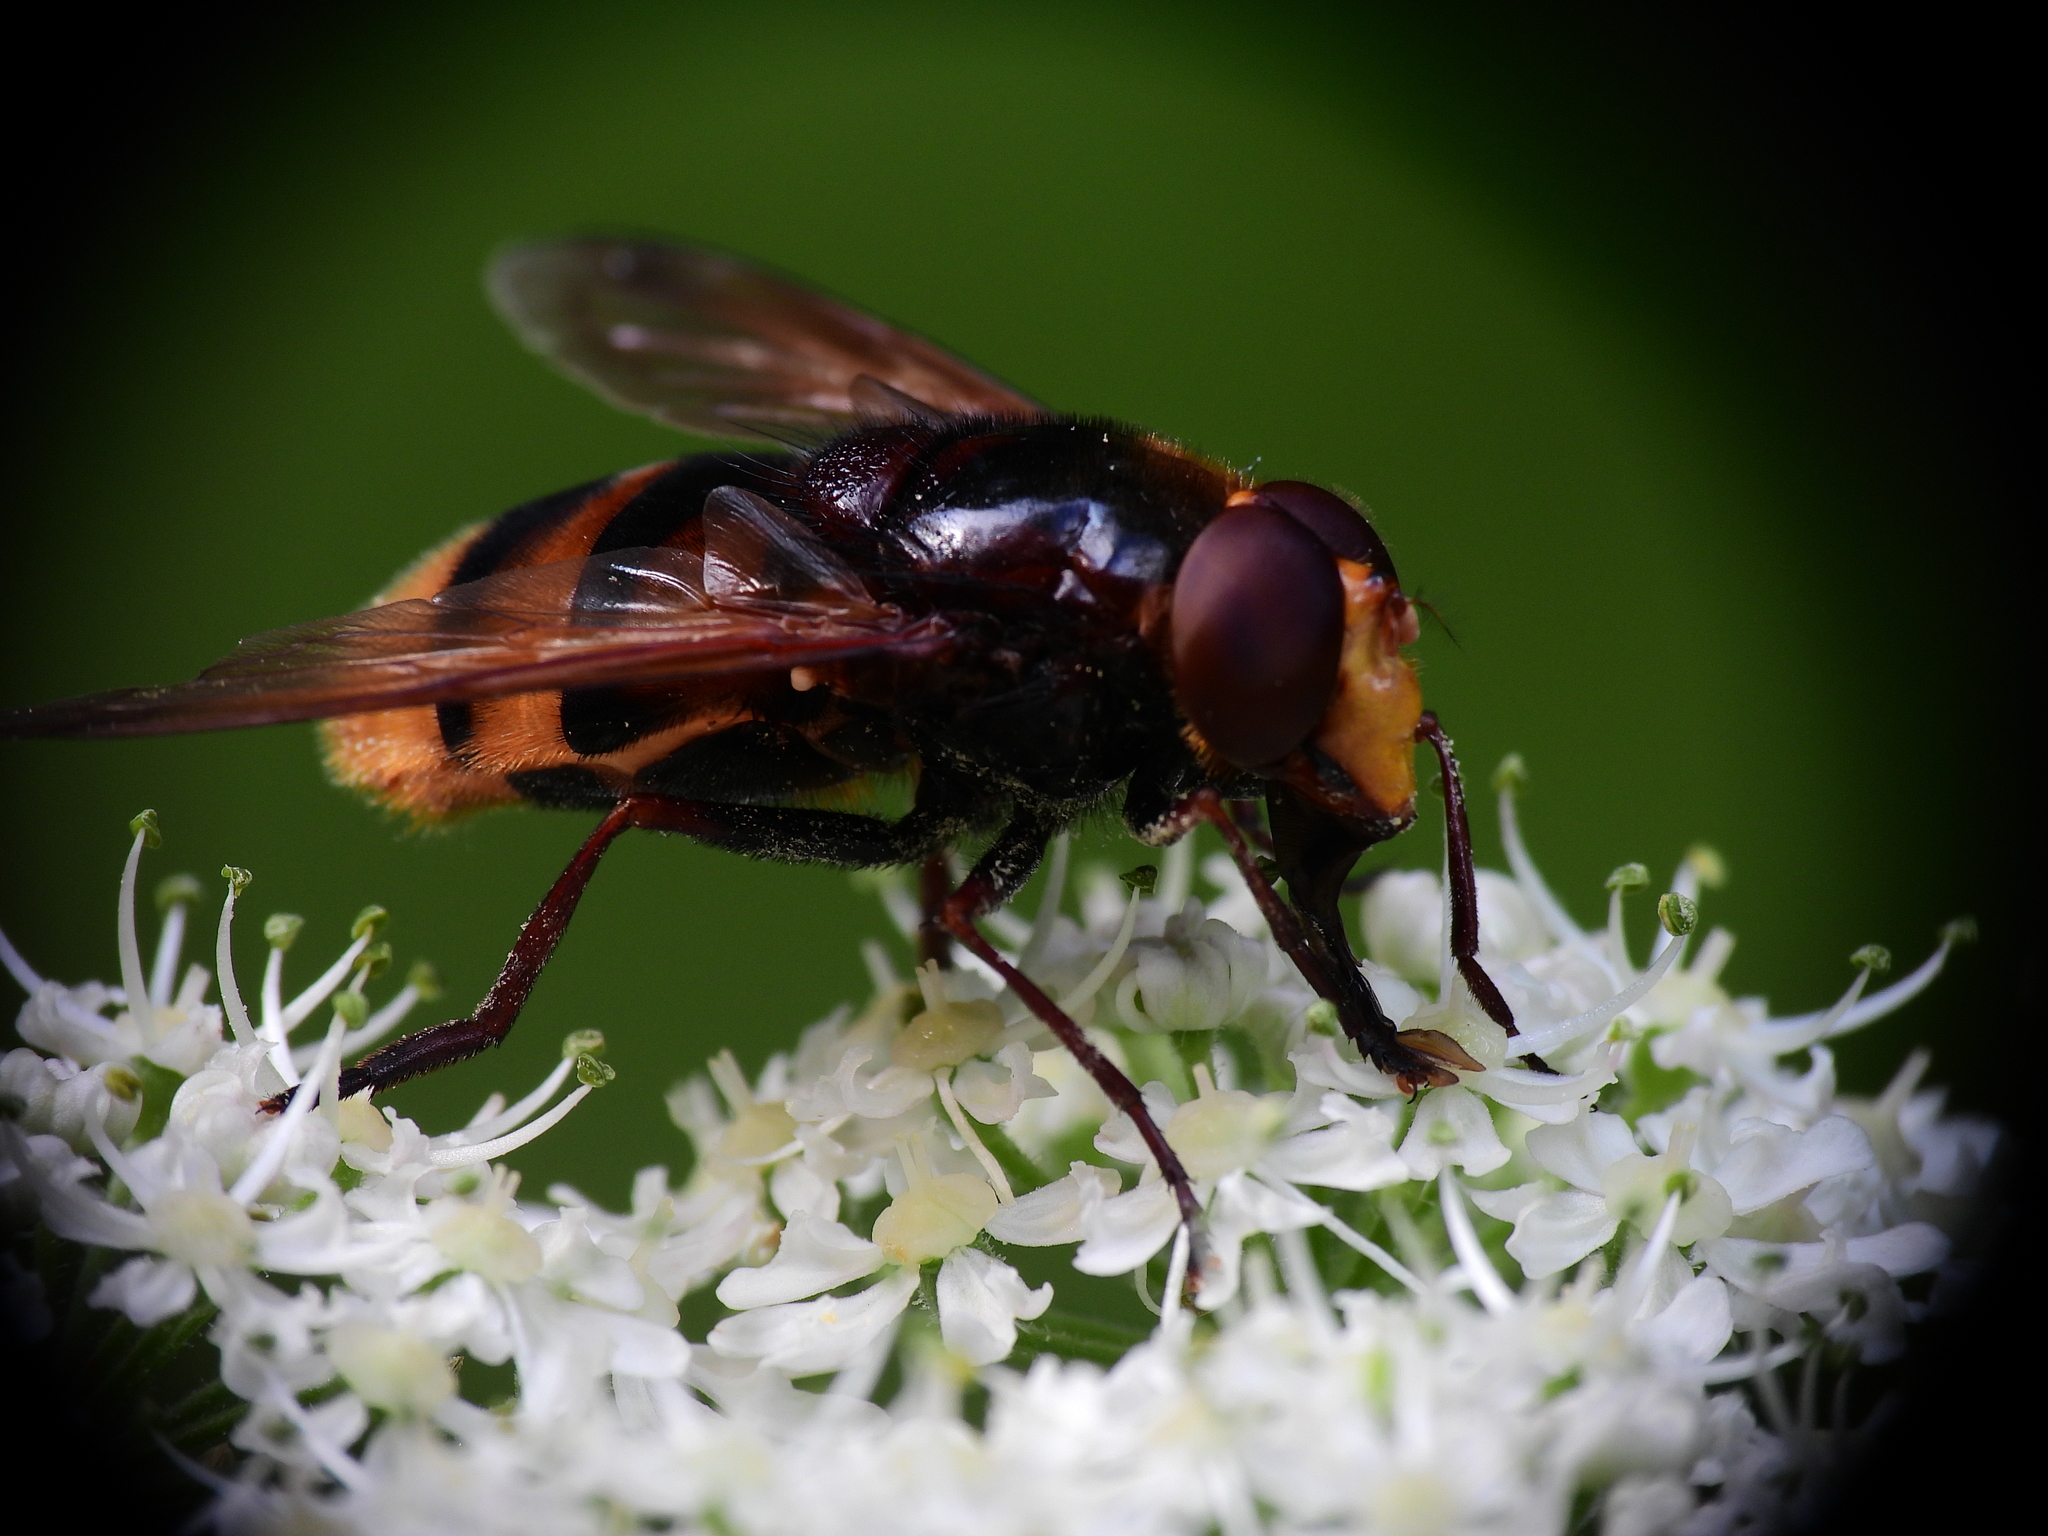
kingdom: Animalia
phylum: Arthropoda
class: Insecta
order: Diptera
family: Syrphidae
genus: Volucella
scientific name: Volucella zonaria
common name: Hornet hoverfly
